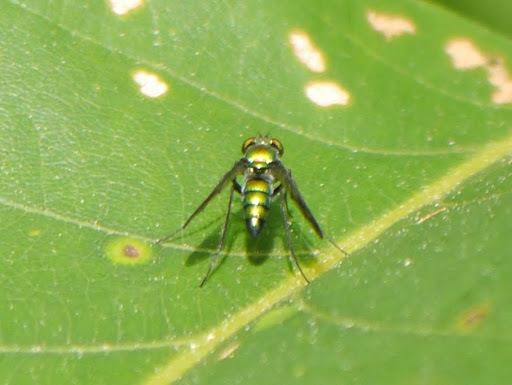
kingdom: Animalia
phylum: Arthropoda
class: Insecta
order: Diptera
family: Dolichopodidae
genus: Condylostylus
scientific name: Condylostylus patibulatus
